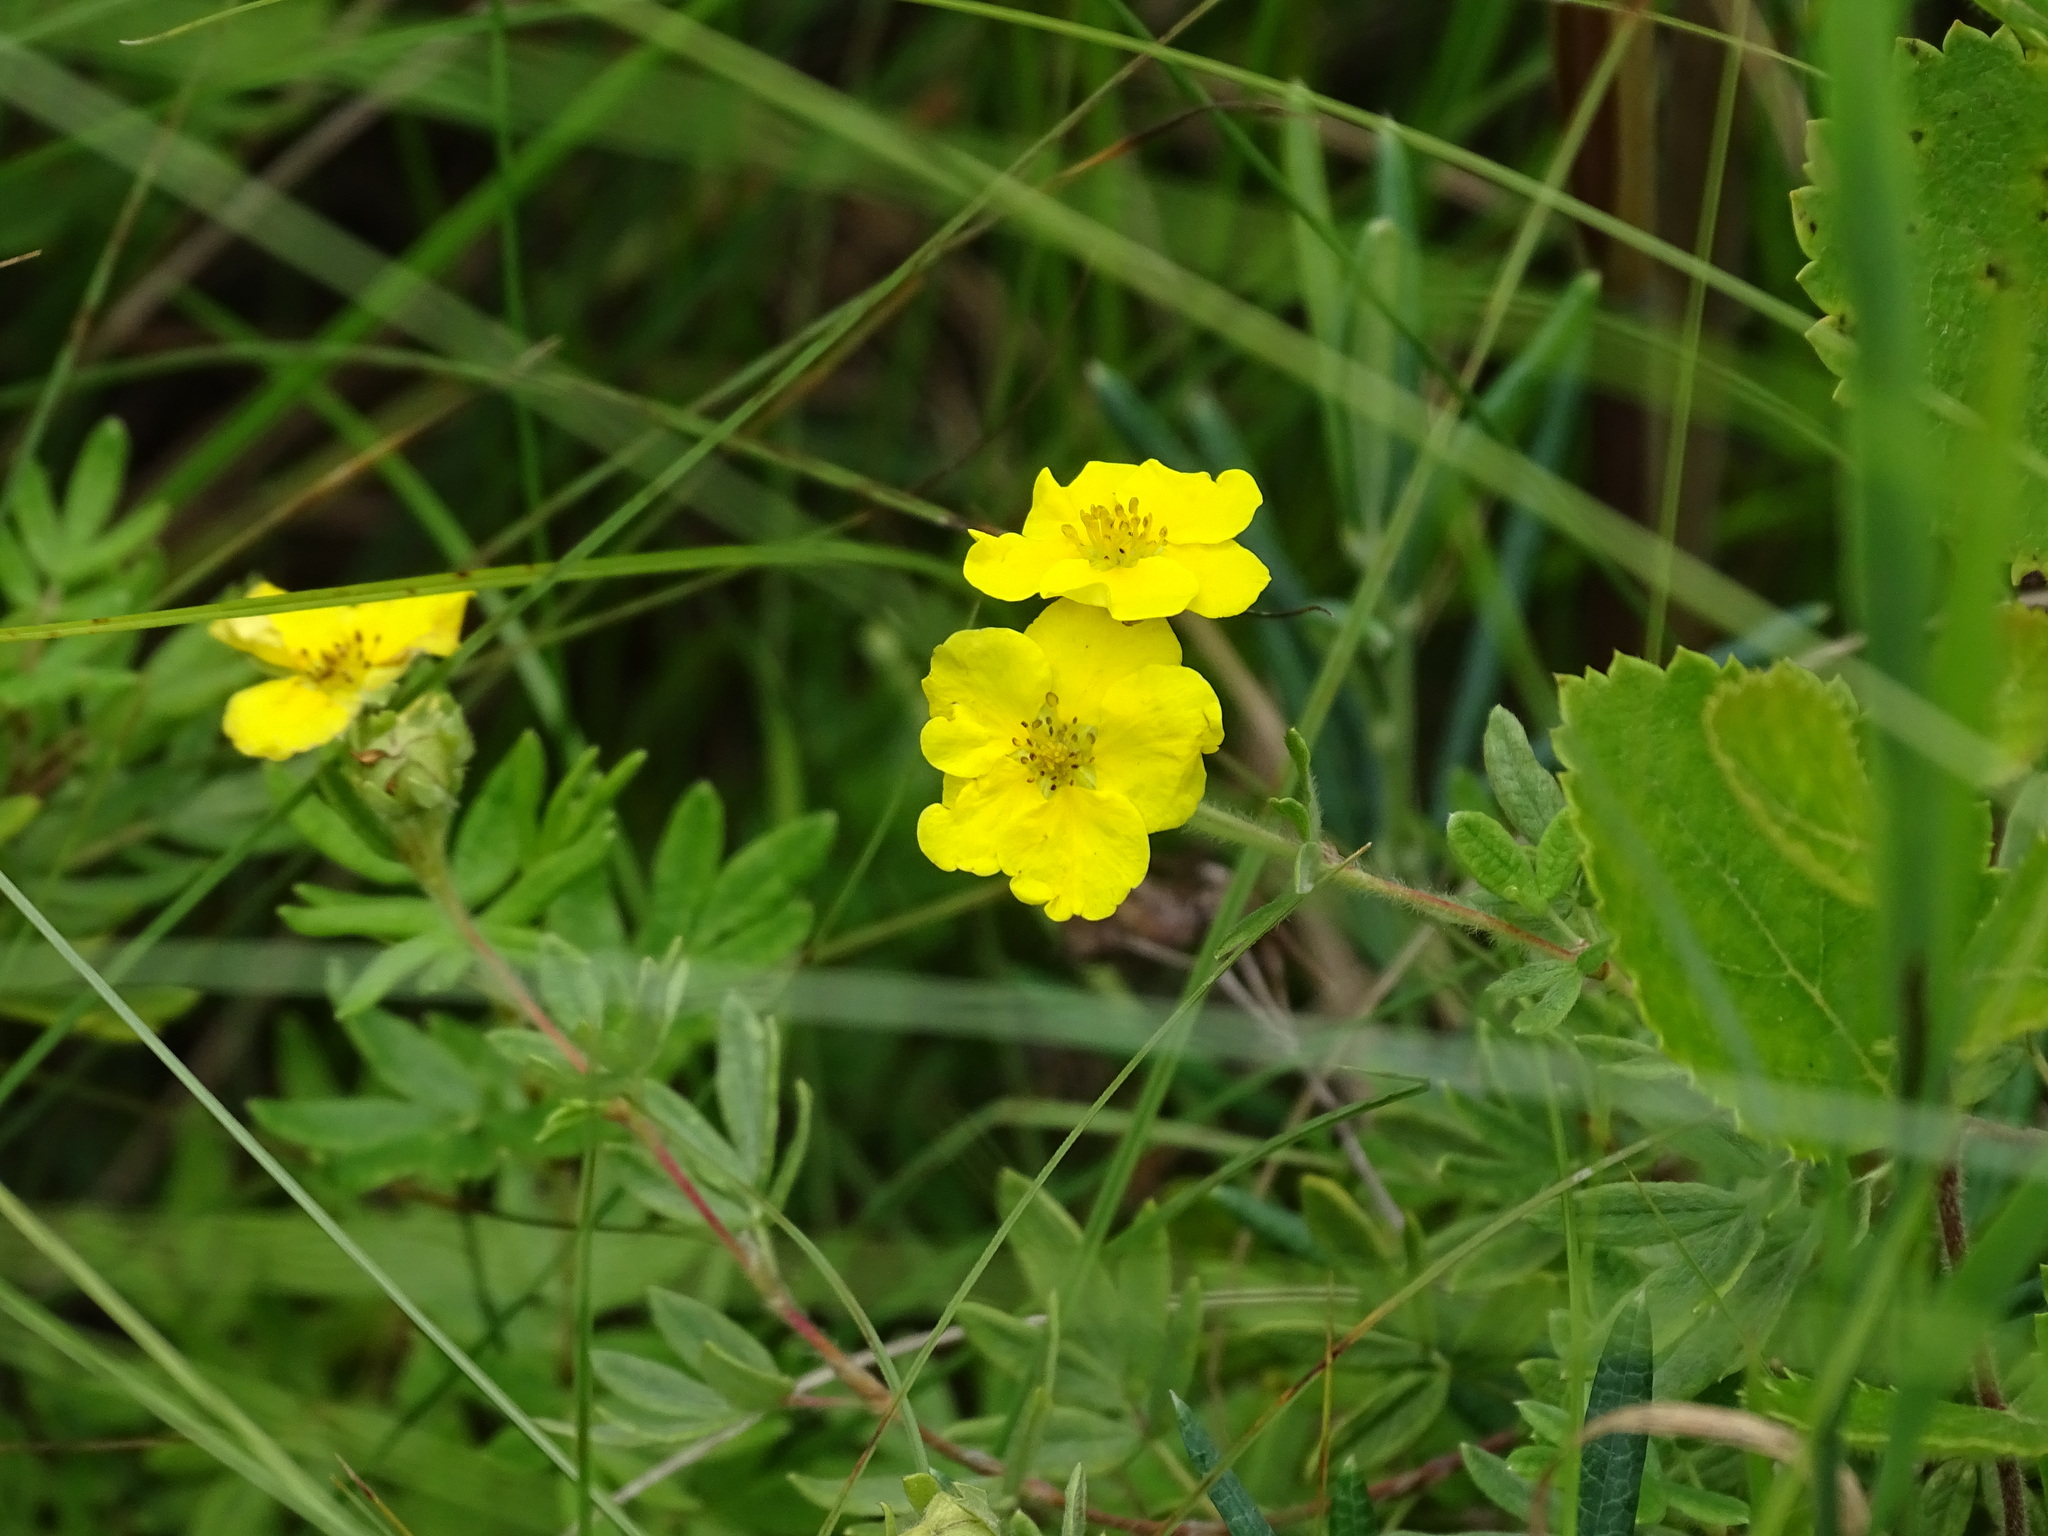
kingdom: Plantae
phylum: Tracheophyta
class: Magnoliopsida
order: Rosales
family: Rosaceae
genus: Dasiphora
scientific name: Dasiphora fruticosa
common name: Shrubby cinquefoil
